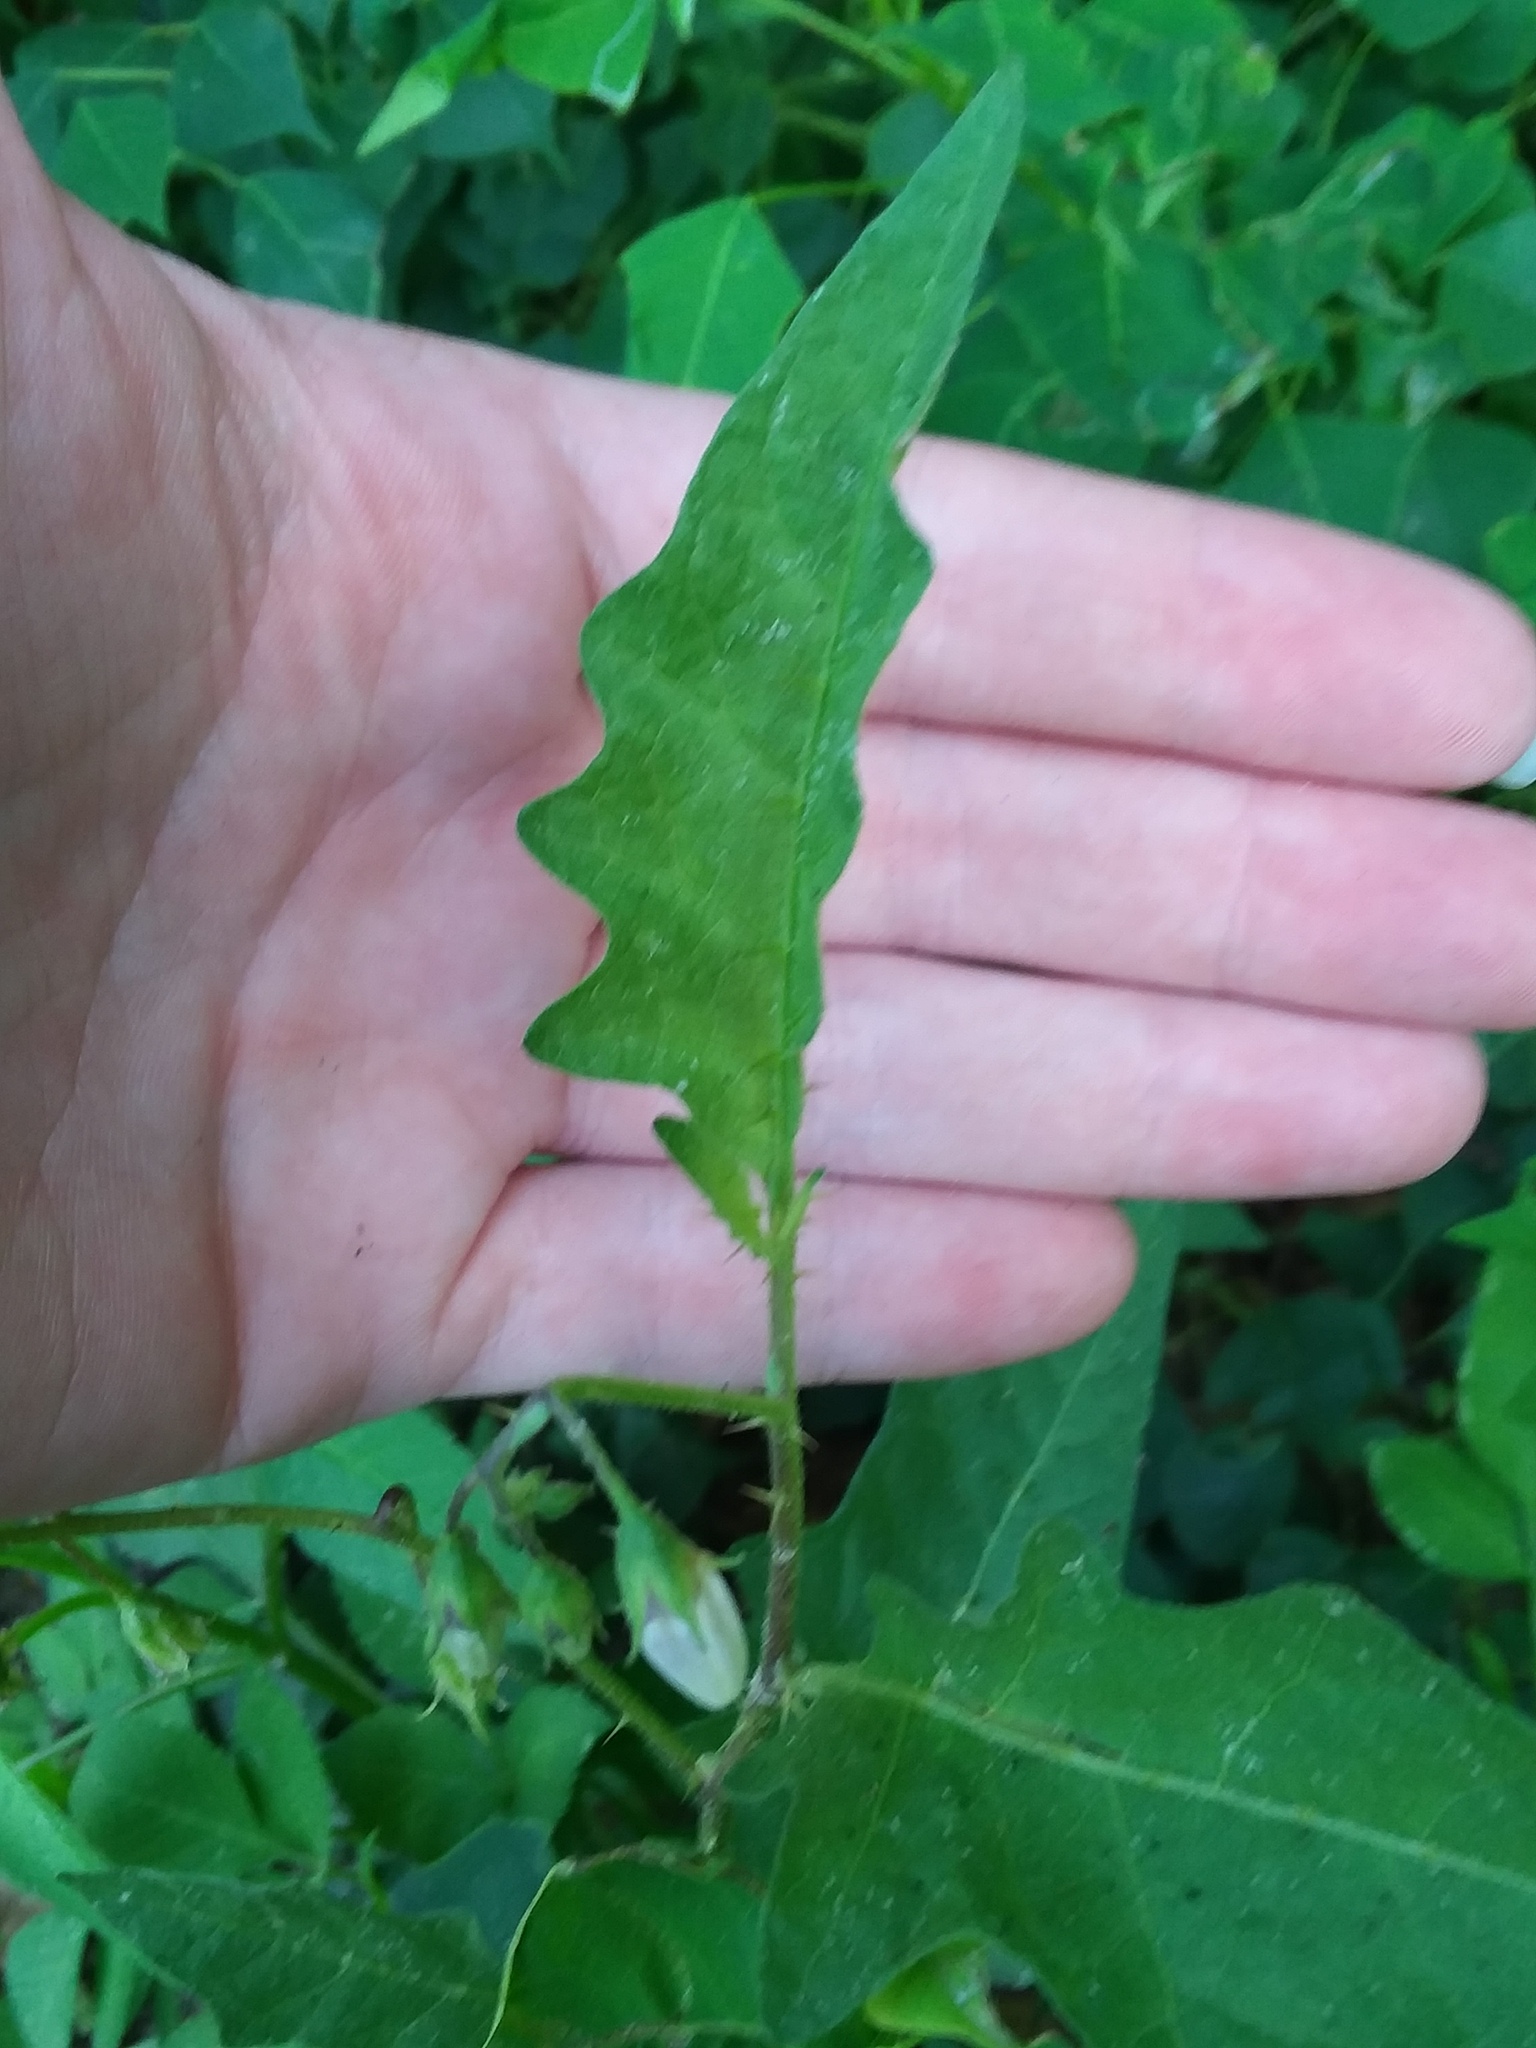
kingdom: Plantae
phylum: Tracheophyta
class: Magnoliopsida
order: Solanales
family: Solanaceae
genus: Solanum
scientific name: Solanum carolinense
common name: Horse-nettle
